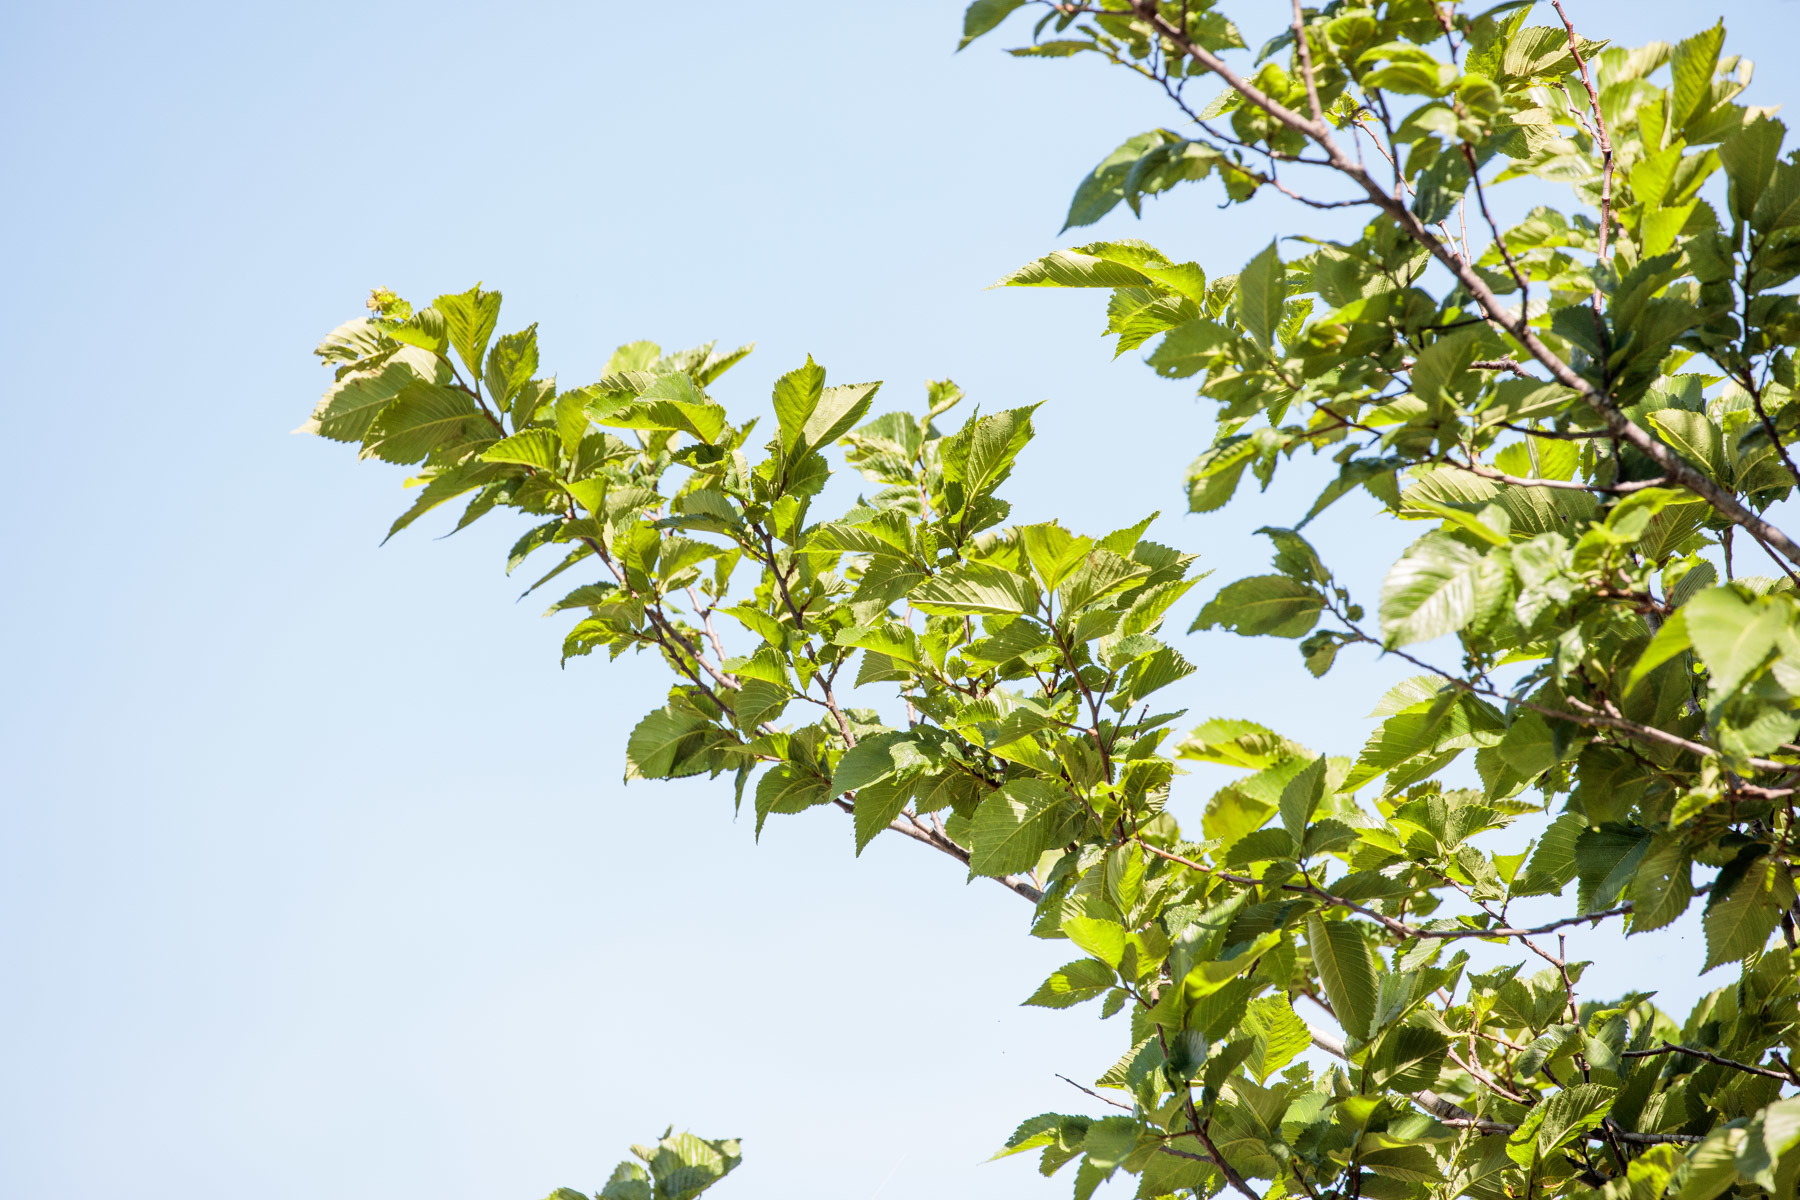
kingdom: Plantae
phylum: Tracheophyta
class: Magnoliopsida
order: Rosales
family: Ulmaceae
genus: Ulmus
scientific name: Ulmus americana
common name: American elm
